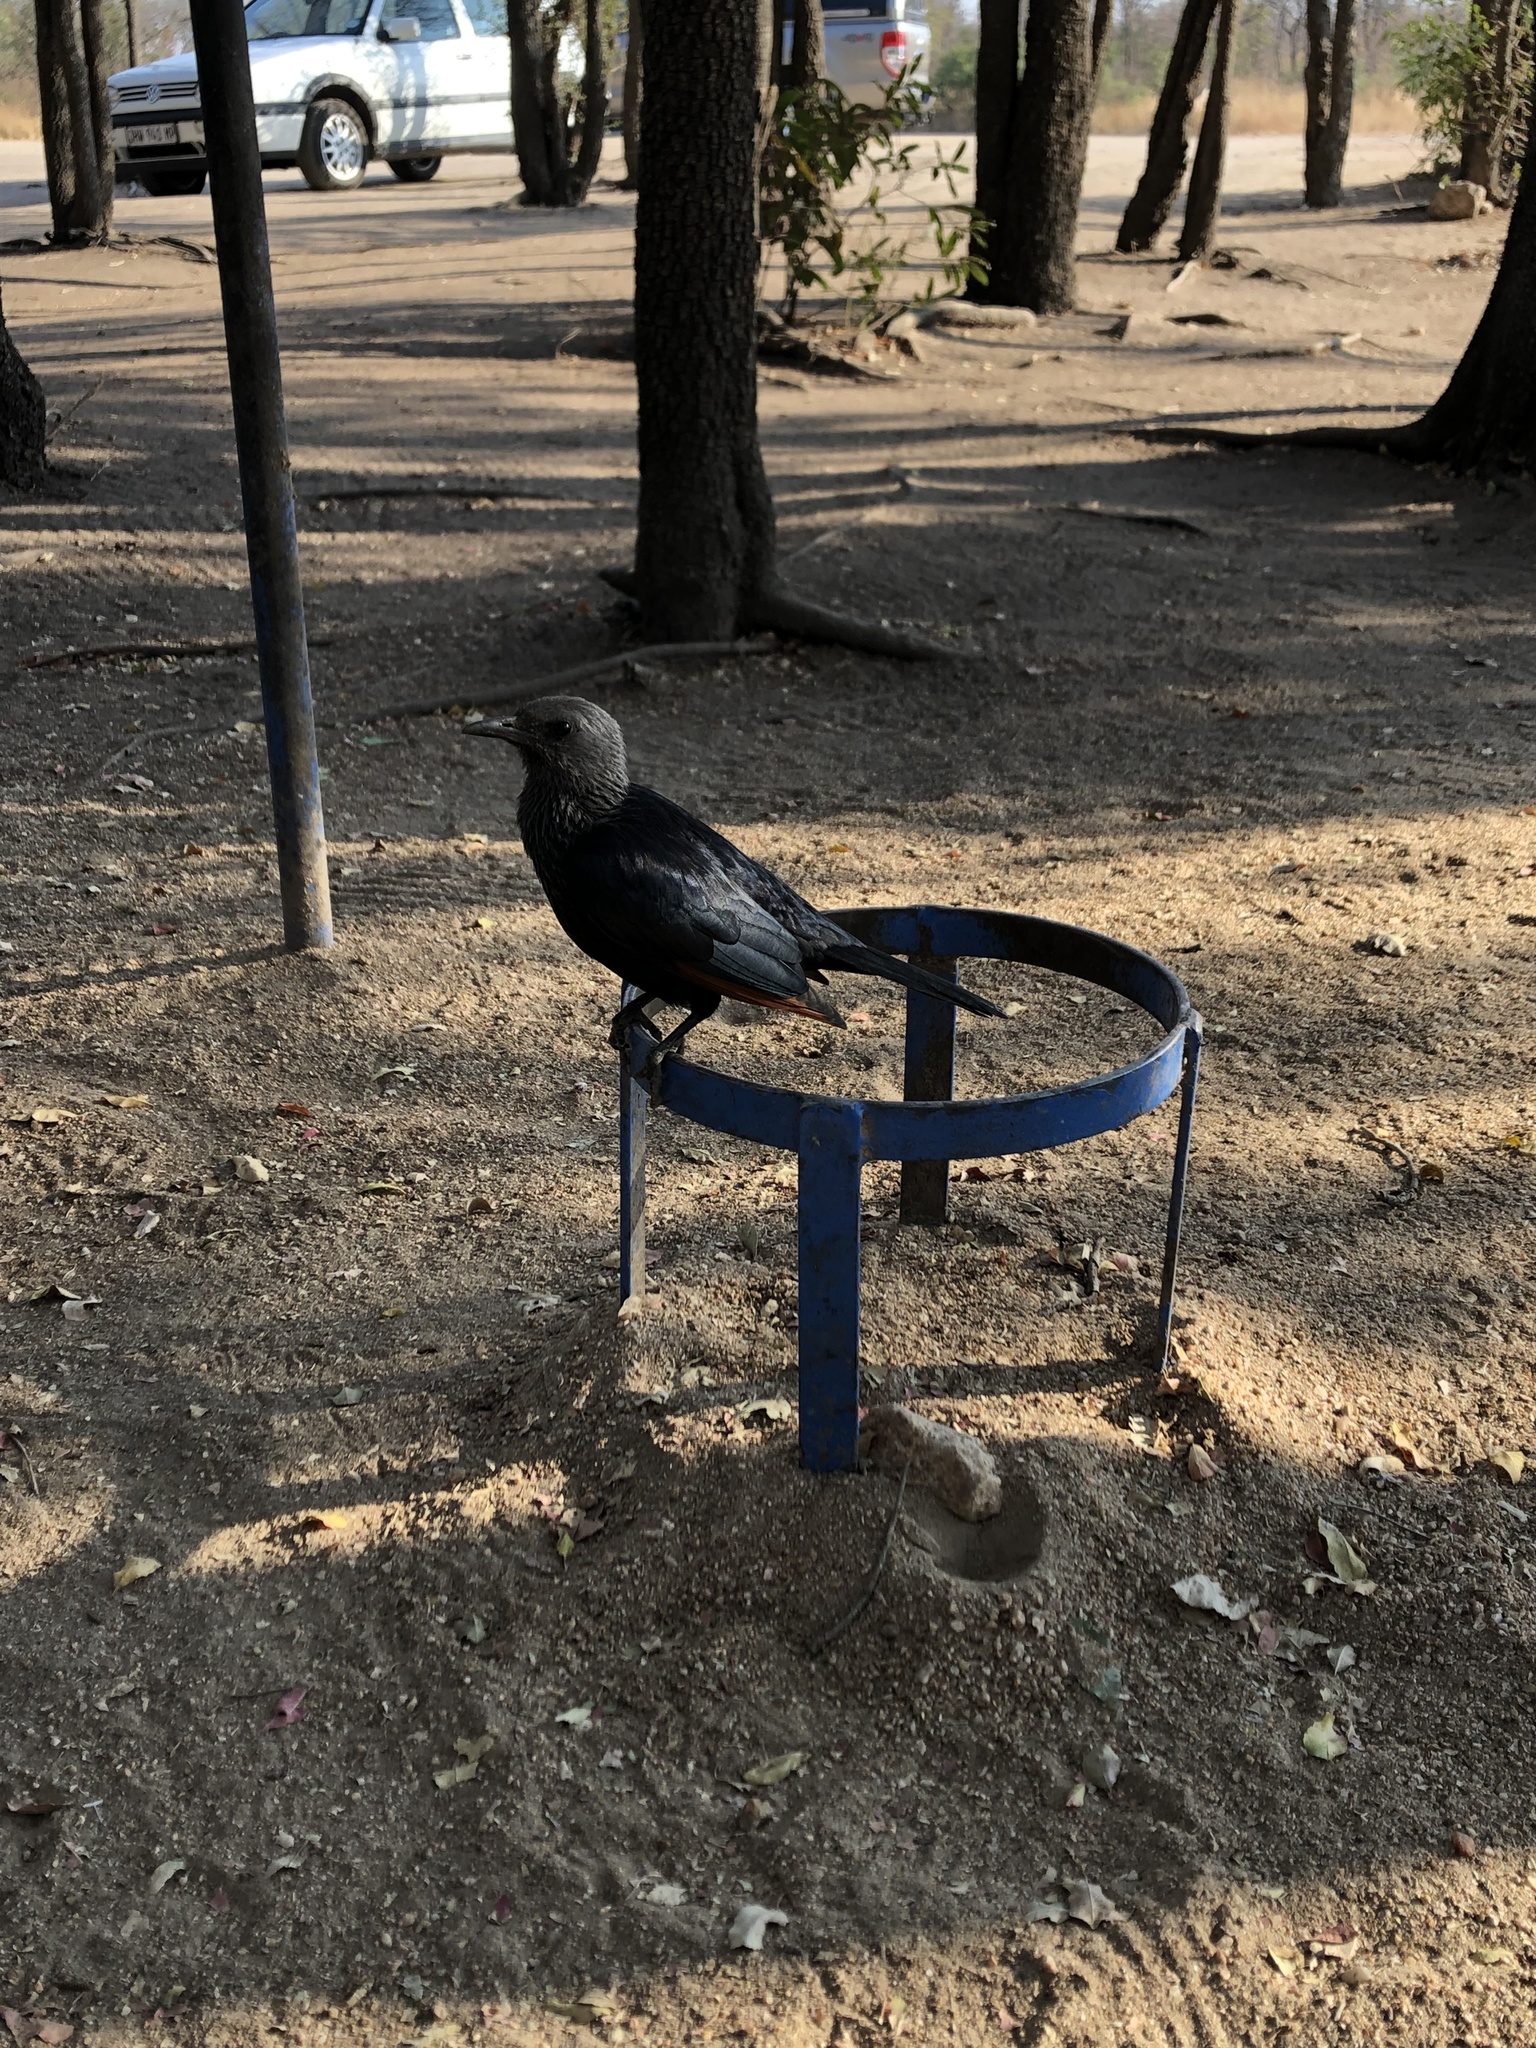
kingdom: Animalia
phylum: Chordata
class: Aves
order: Passeriformes
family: Sturnidae
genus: Onychognathus
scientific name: Onychognathus morio
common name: Red-winged starling
